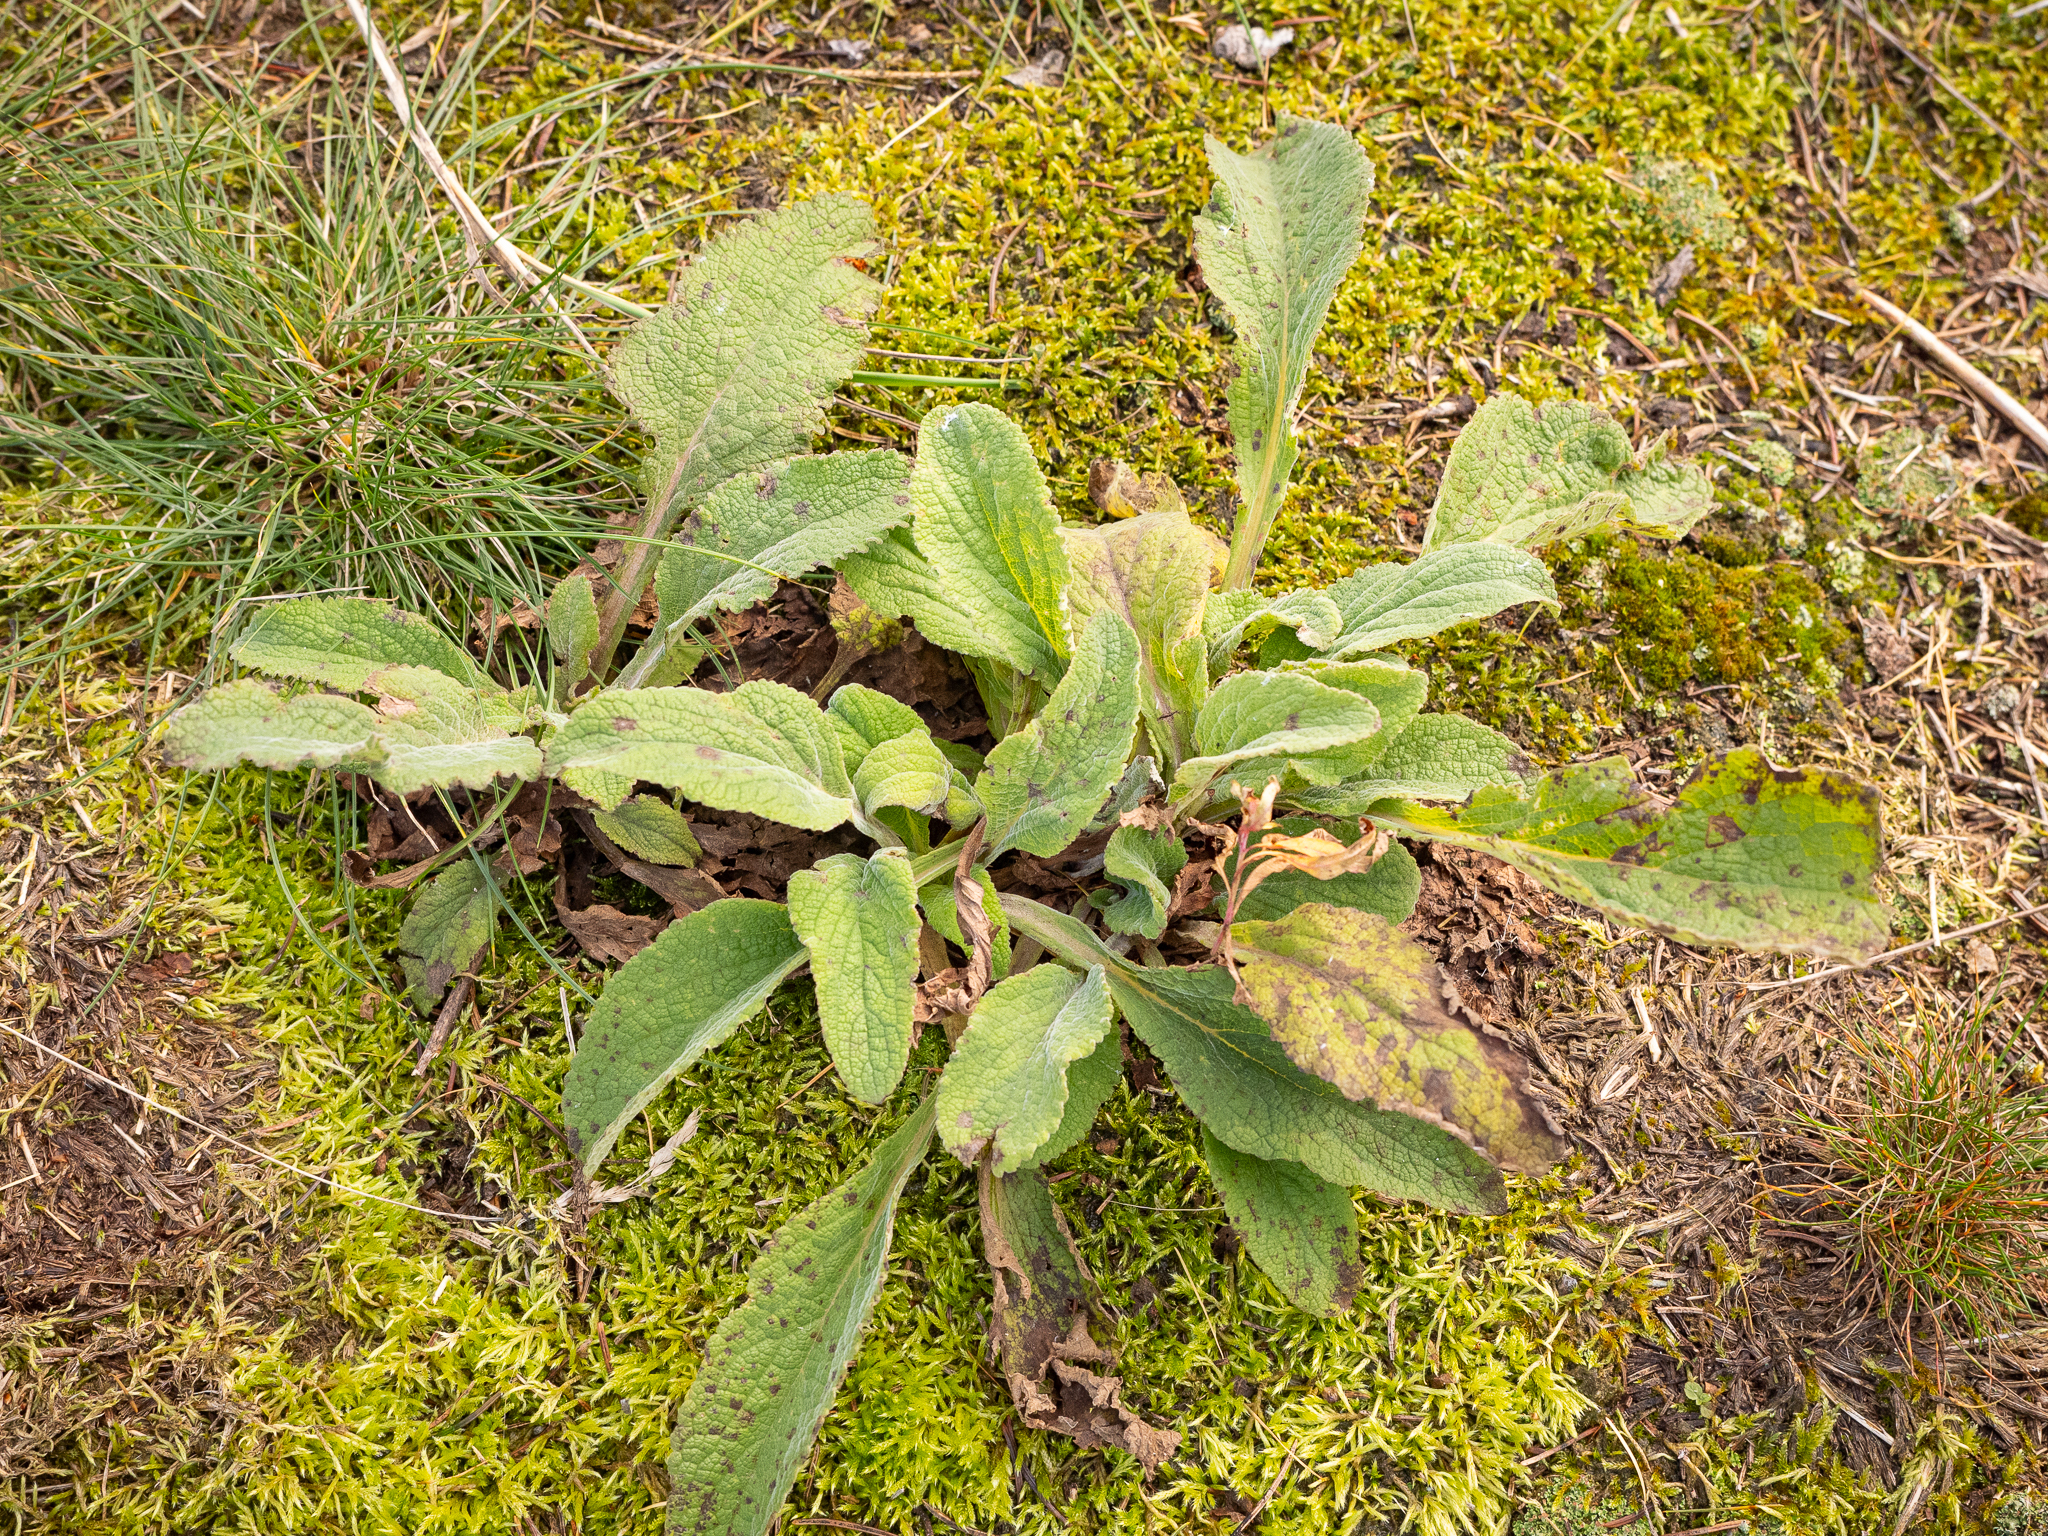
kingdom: Plantae
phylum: Tracheophyta
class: Magnoliopsida
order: Lamiales
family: Plantaginaceae
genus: Digitalis
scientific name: Digitalis purpurea
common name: Foxglove
